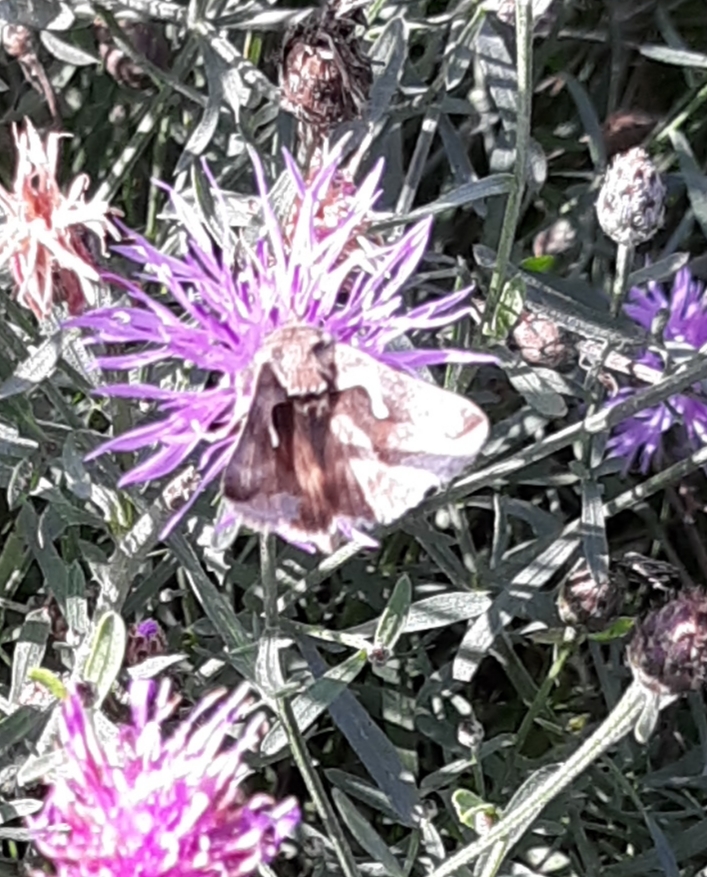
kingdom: Animalia
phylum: Arthropoda
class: Insecta
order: Lepidoptera
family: Noctuidae
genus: Anagrapha
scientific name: Anagrapha falcifera
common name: Celery looper
